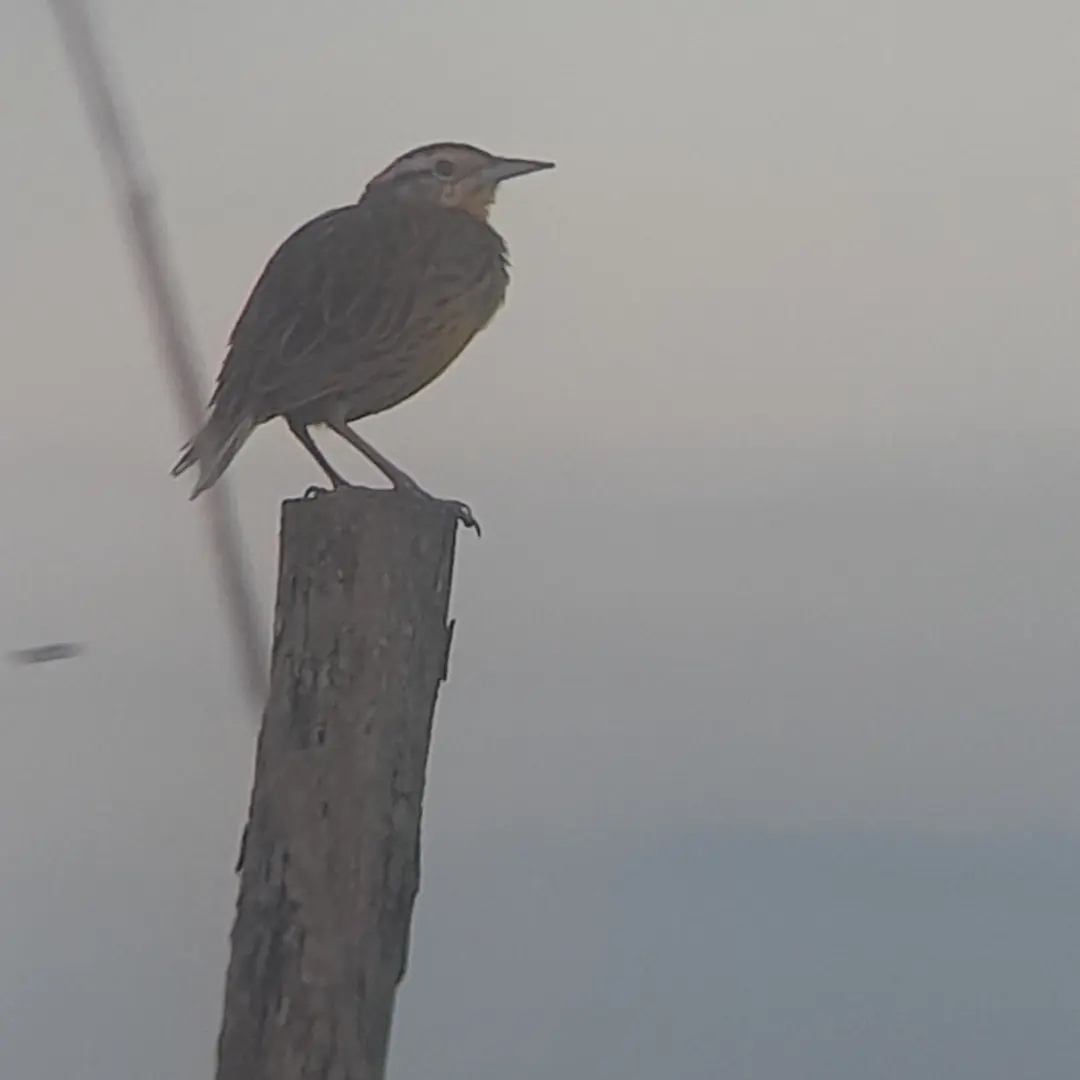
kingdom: Animalia
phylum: Chordata
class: Aves
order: Passeriformes
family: Icteridae
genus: Sturnella
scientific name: Sturnella magna
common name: Eastern meadowlark
